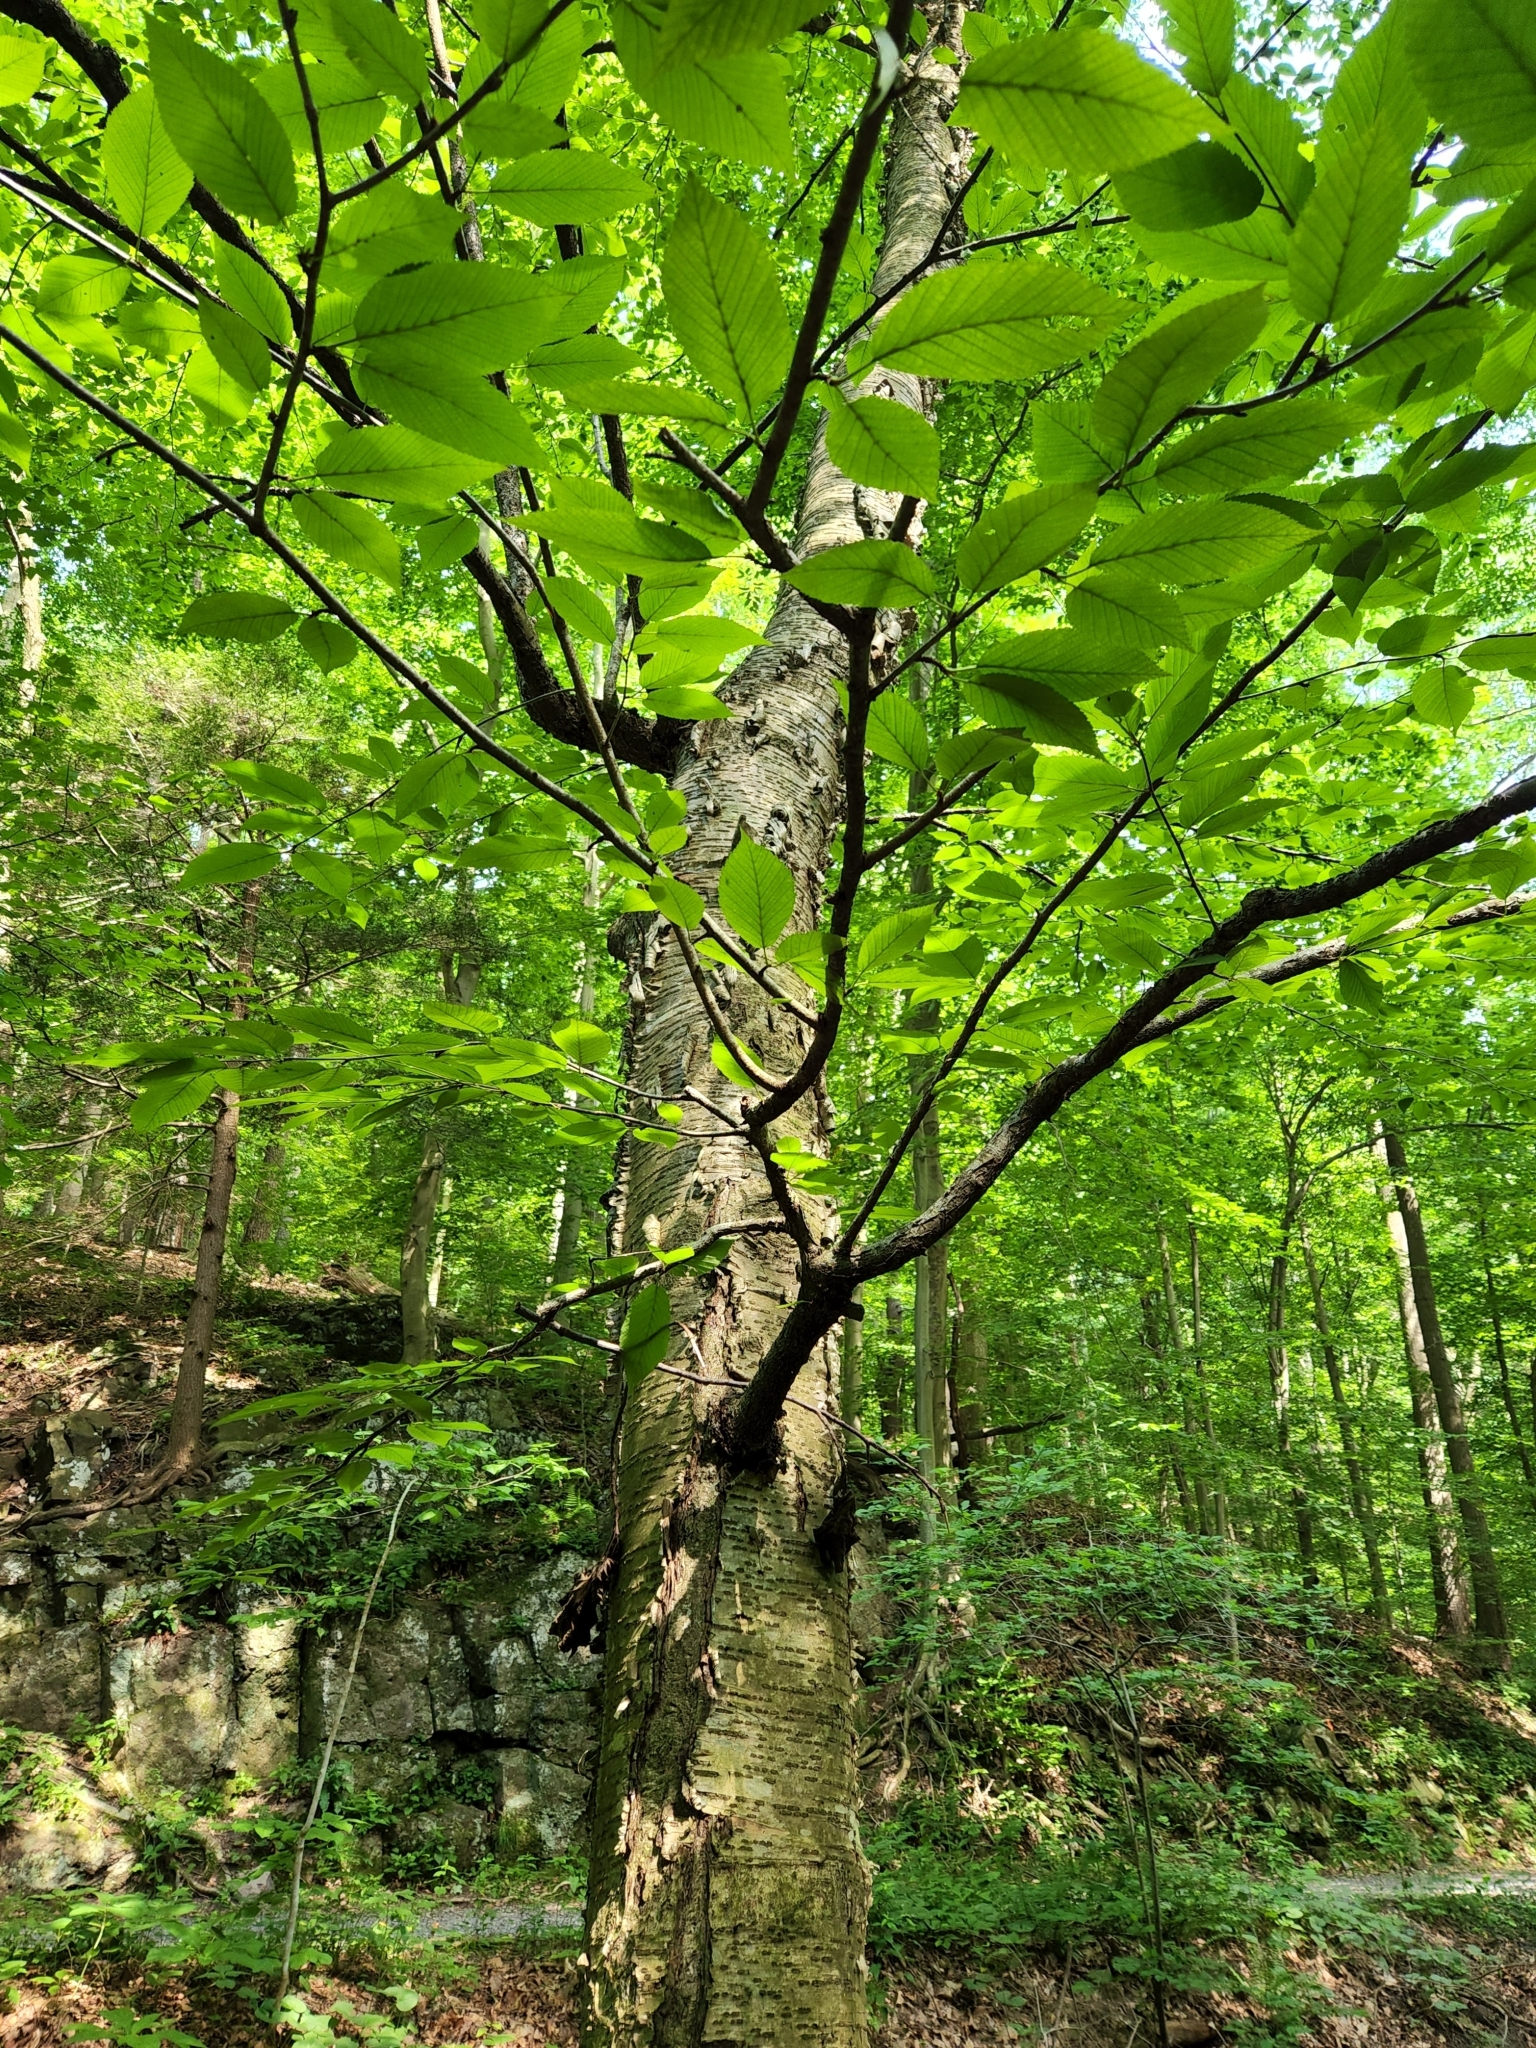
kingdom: Plantae
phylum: Tracheophyta
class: Magnoliopsida
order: Fagales
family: Betulaceae
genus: Betula
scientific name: Betula alleghaniensis
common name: Yellow birch
